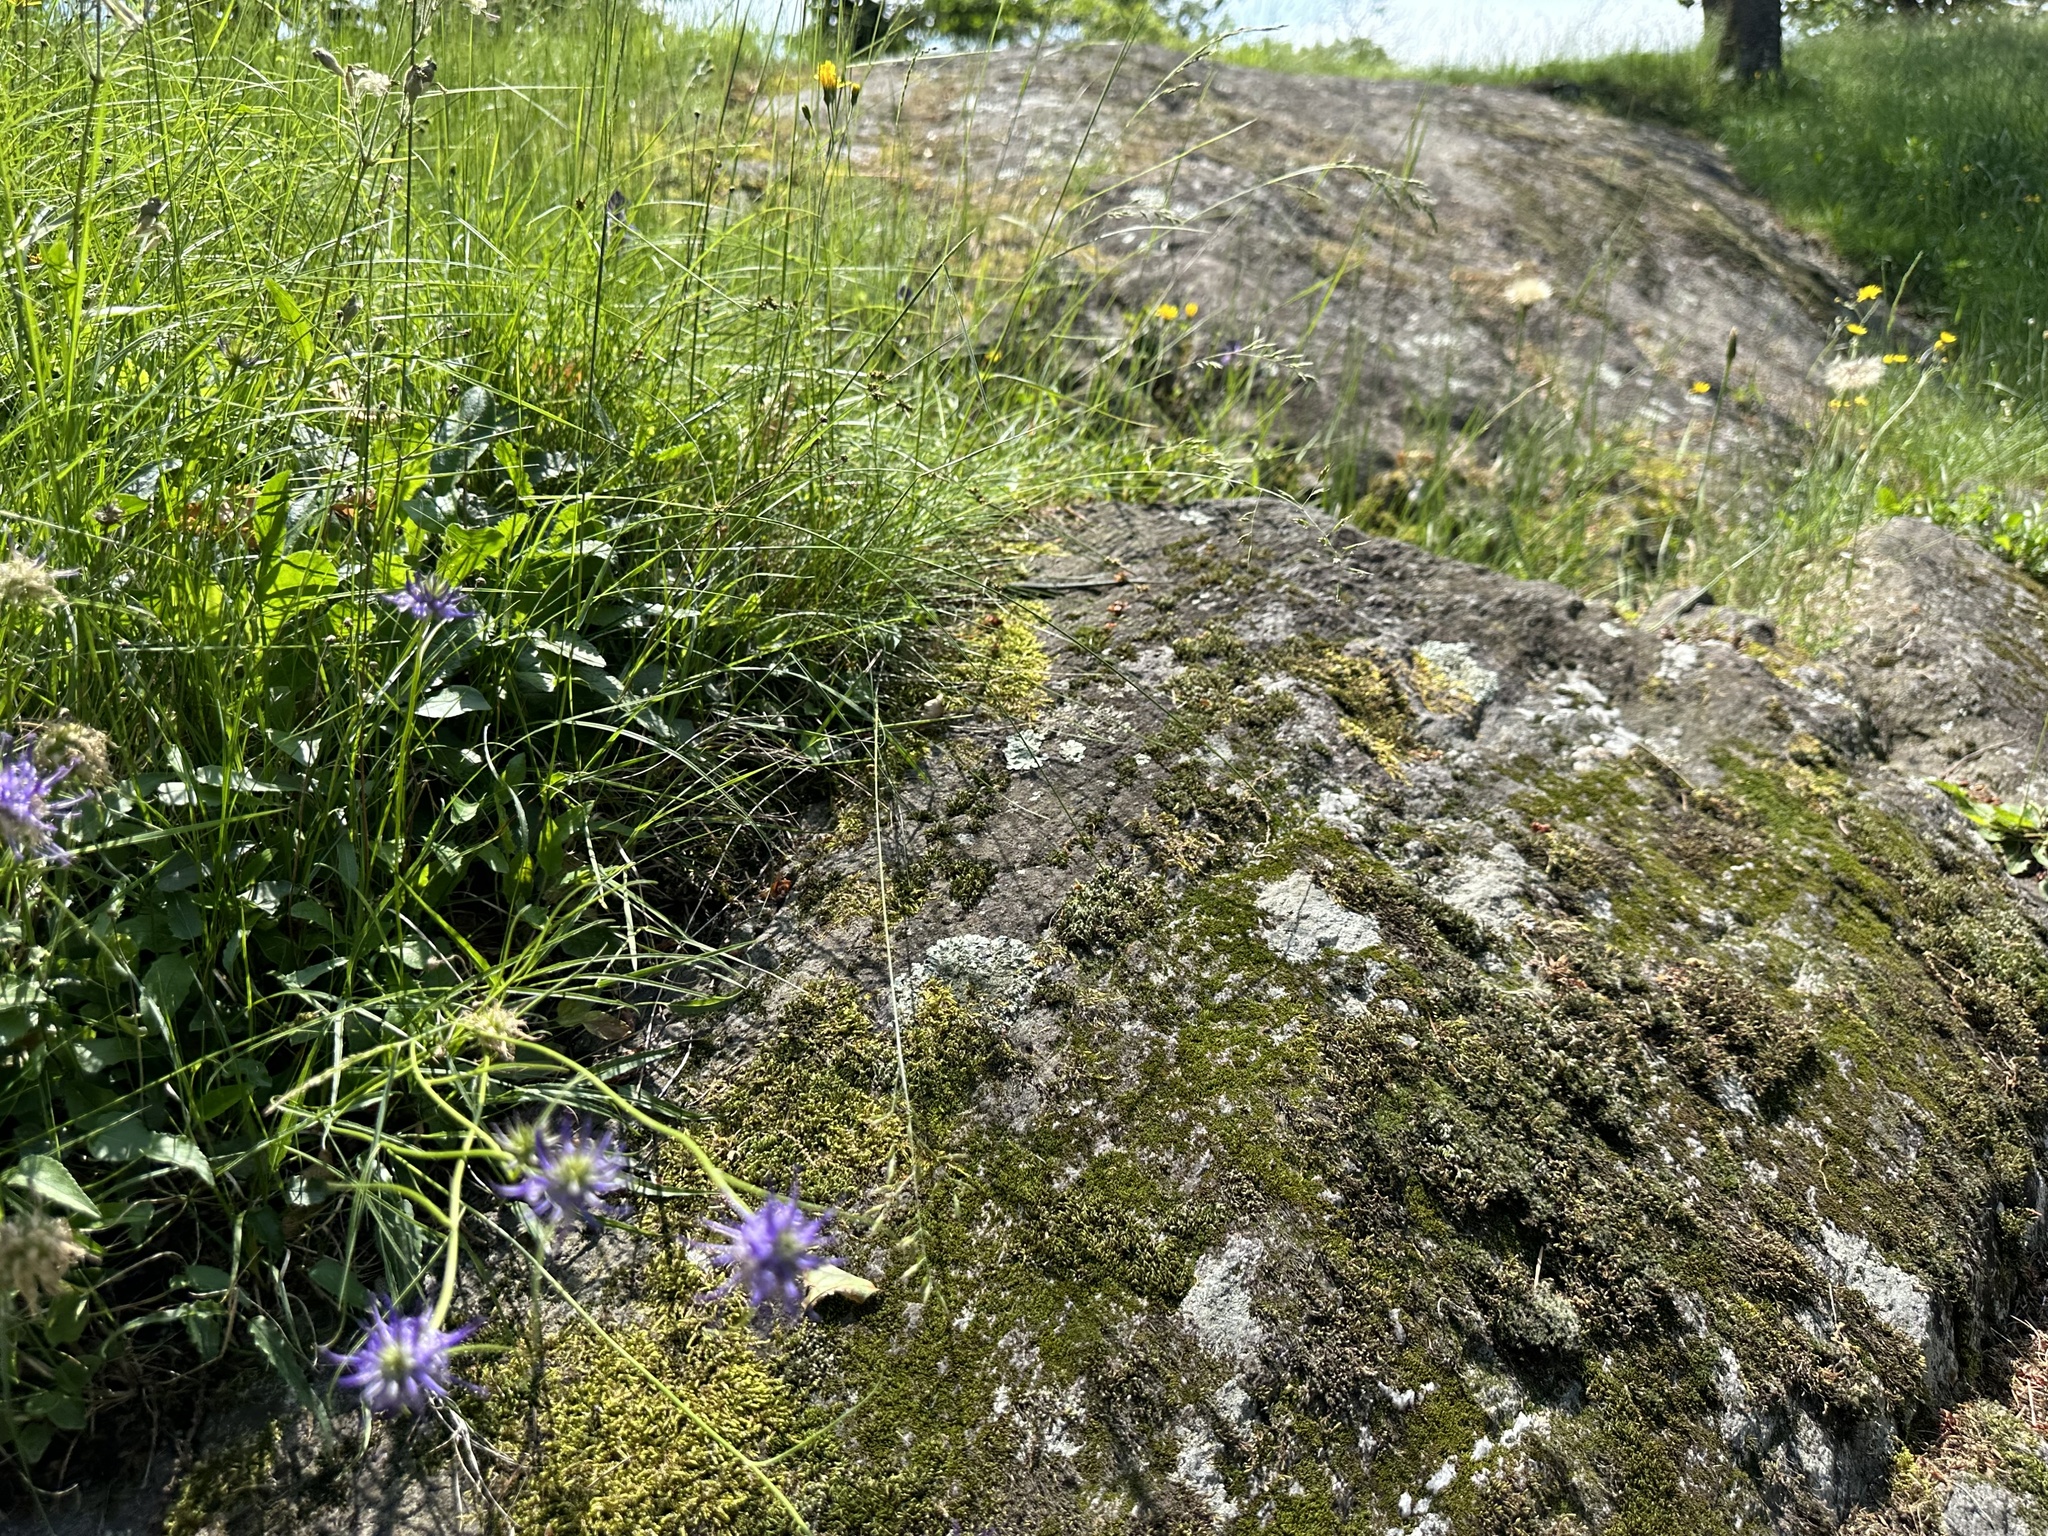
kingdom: Animalia
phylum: Chordata
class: Squamata
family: Lacertidae
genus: Podarcis
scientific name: Podarcis muralis
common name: Common wall lizard
